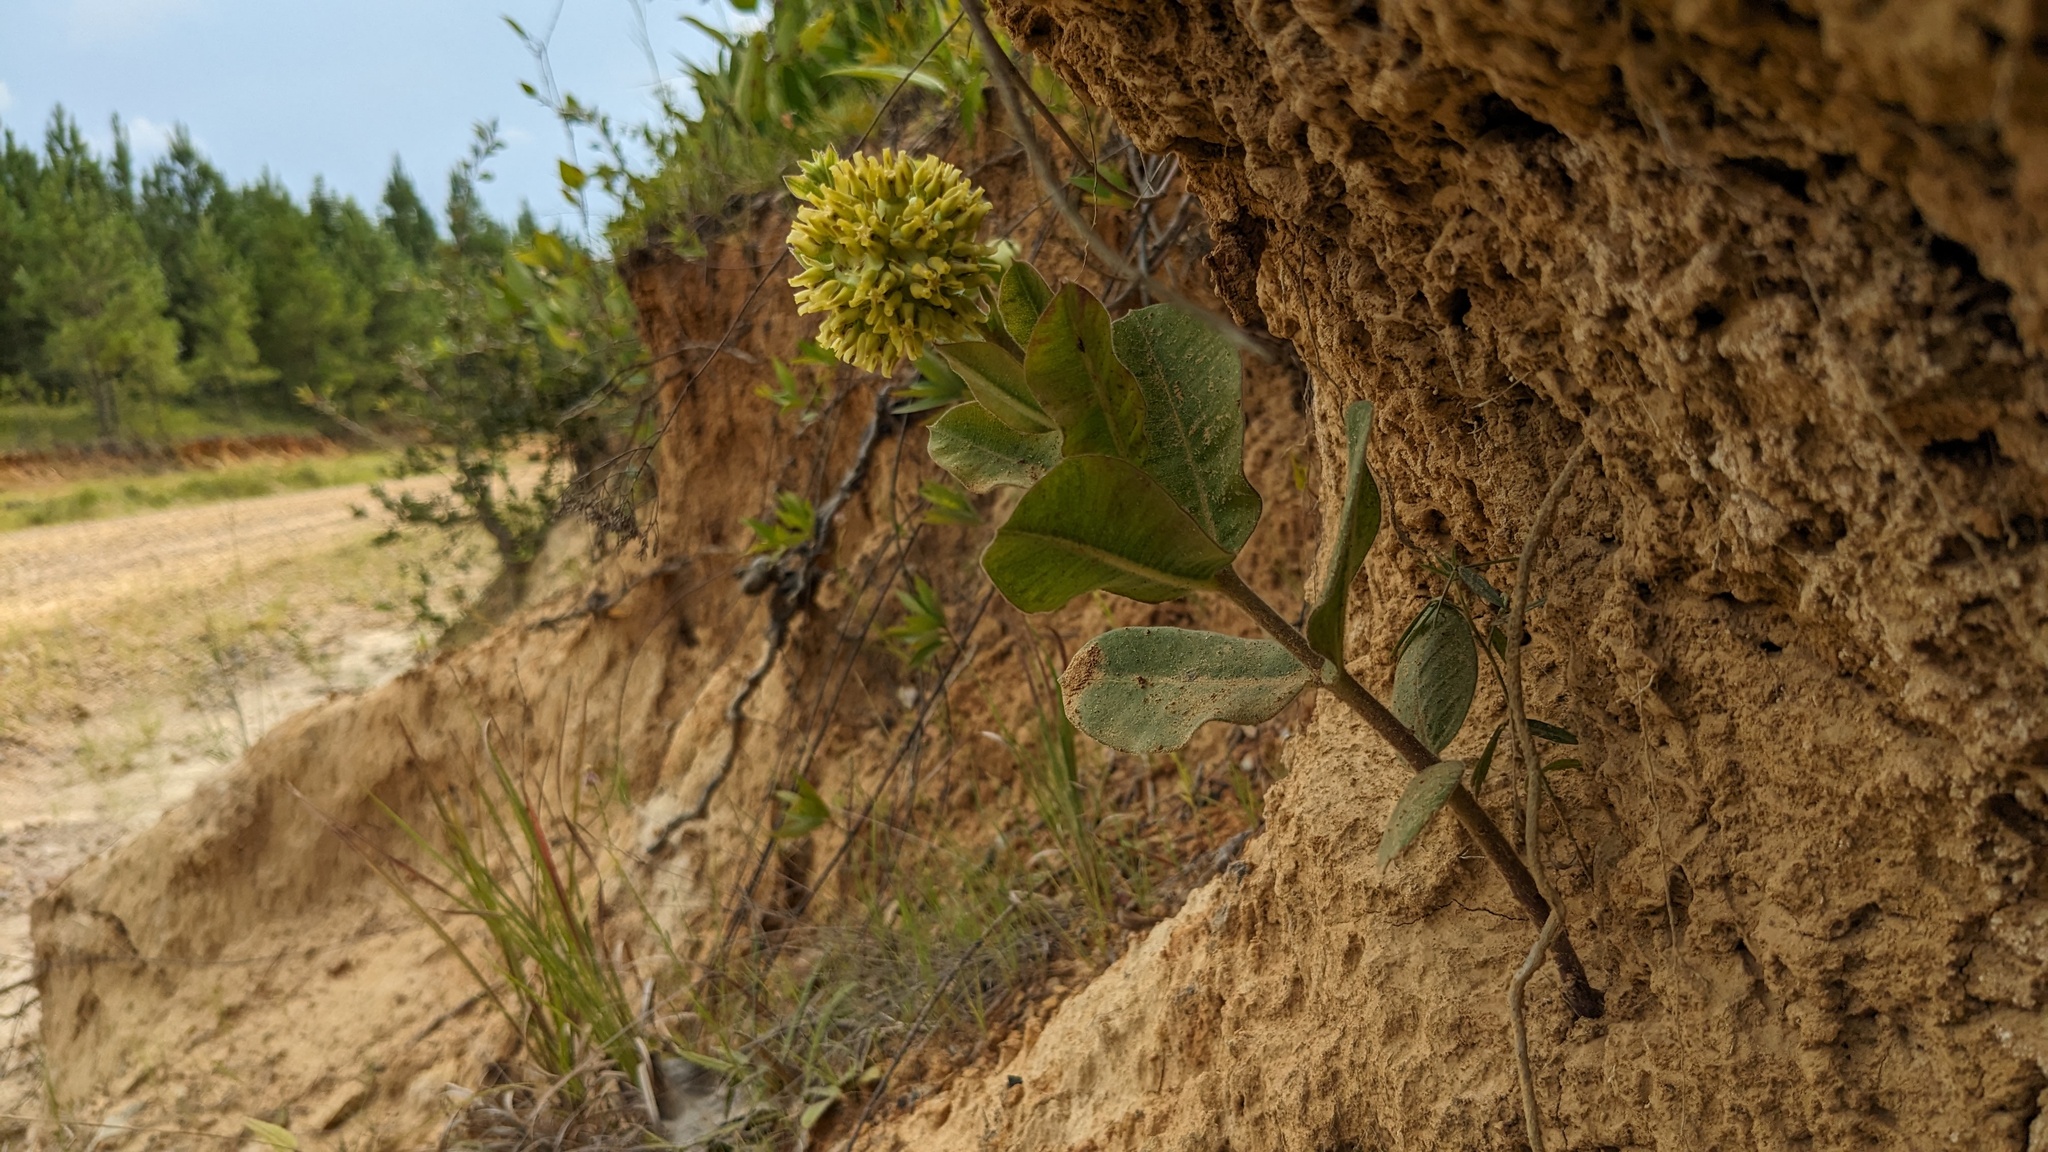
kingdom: Plantae
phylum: Tracheophyta
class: Magnoliopsida
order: Gentianales
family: Apocynaceae
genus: Asclepias
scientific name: Asclepias obovata
